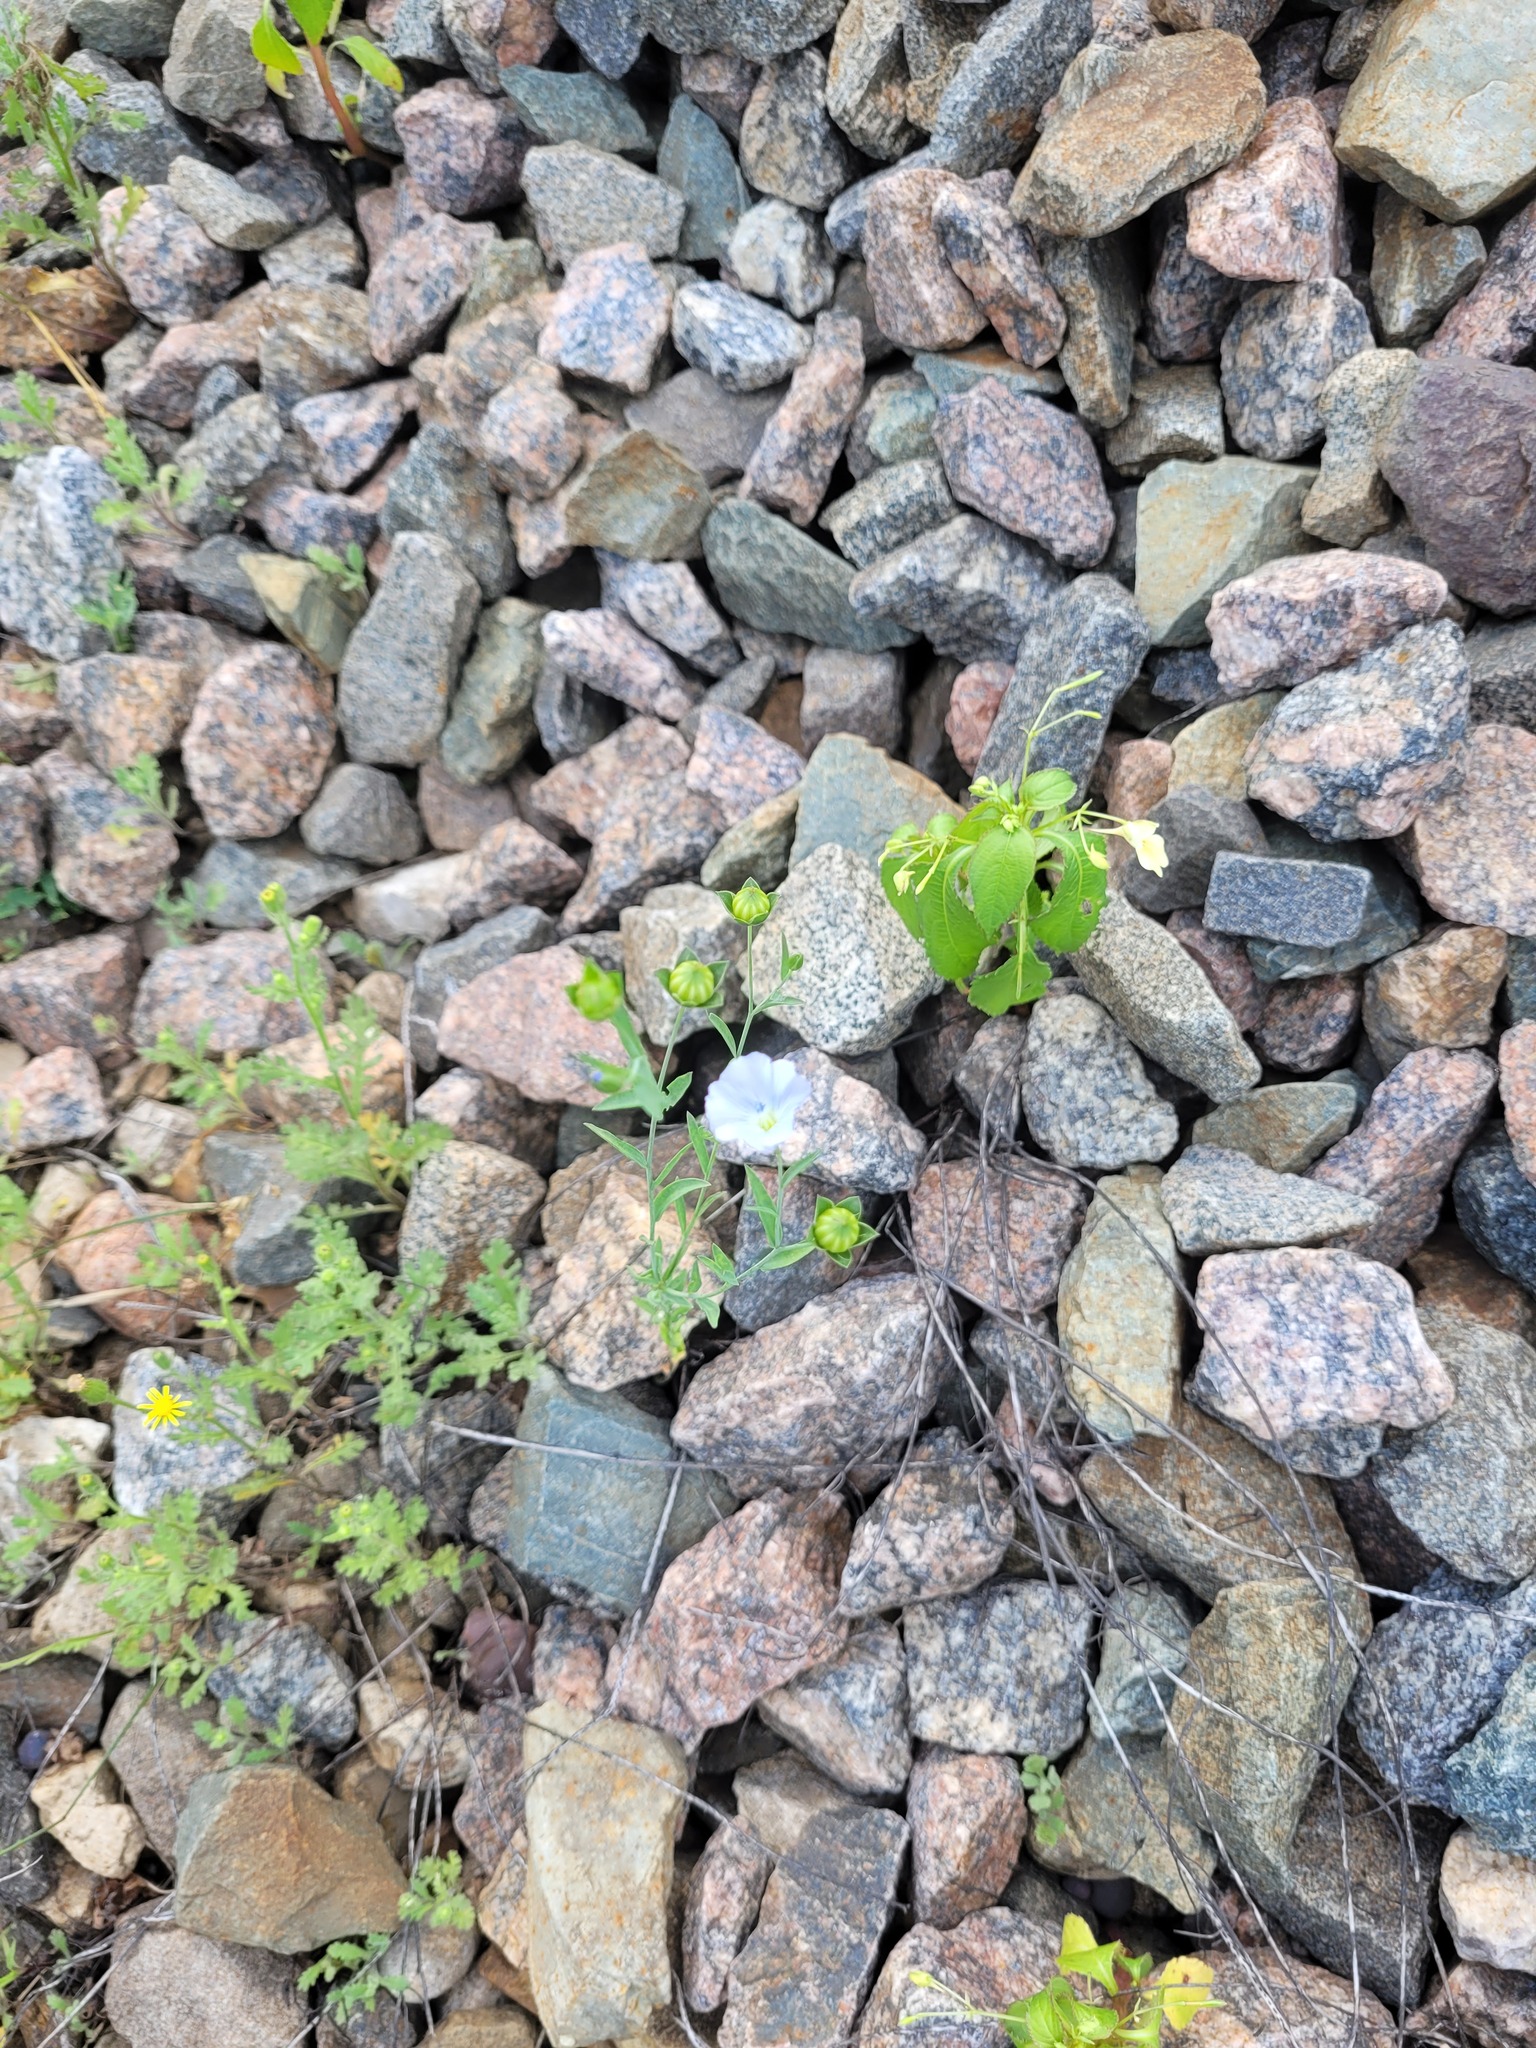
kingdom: Plantae
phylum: Tracheophyta
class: Magnoliopsida
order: Malpighiales
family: Linaceae
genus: Linum
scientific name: Linum usitatissimum
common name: Flax
